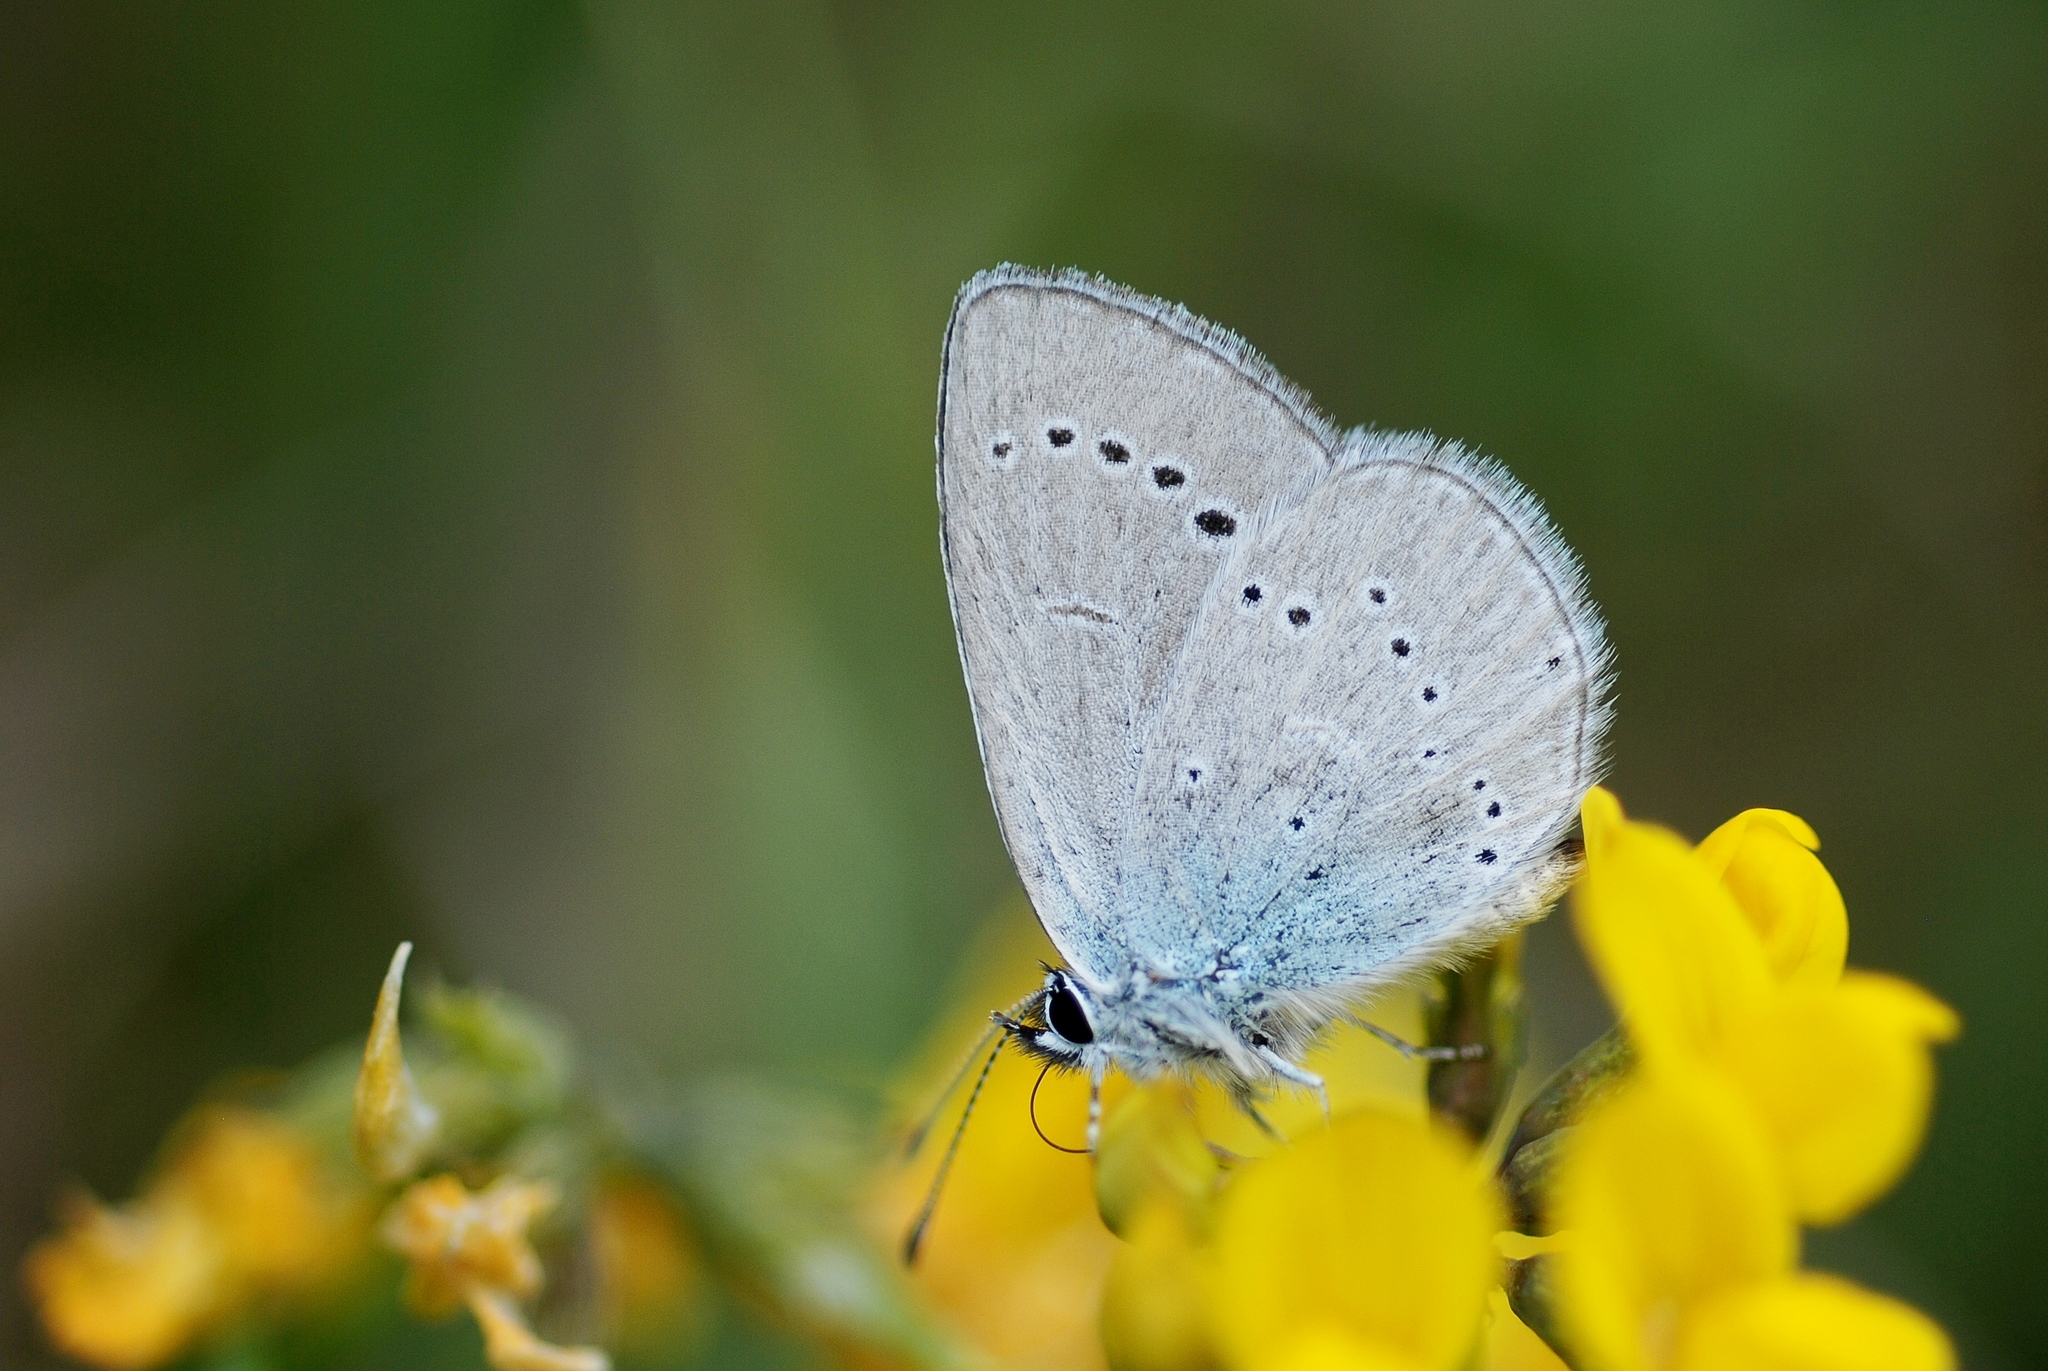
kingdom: Animalia
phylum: Arthropoda
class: Insecta
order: Lepidoptera
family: Lycaenidae
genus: Cupido
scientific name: Cupido minimus
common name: Small blue
